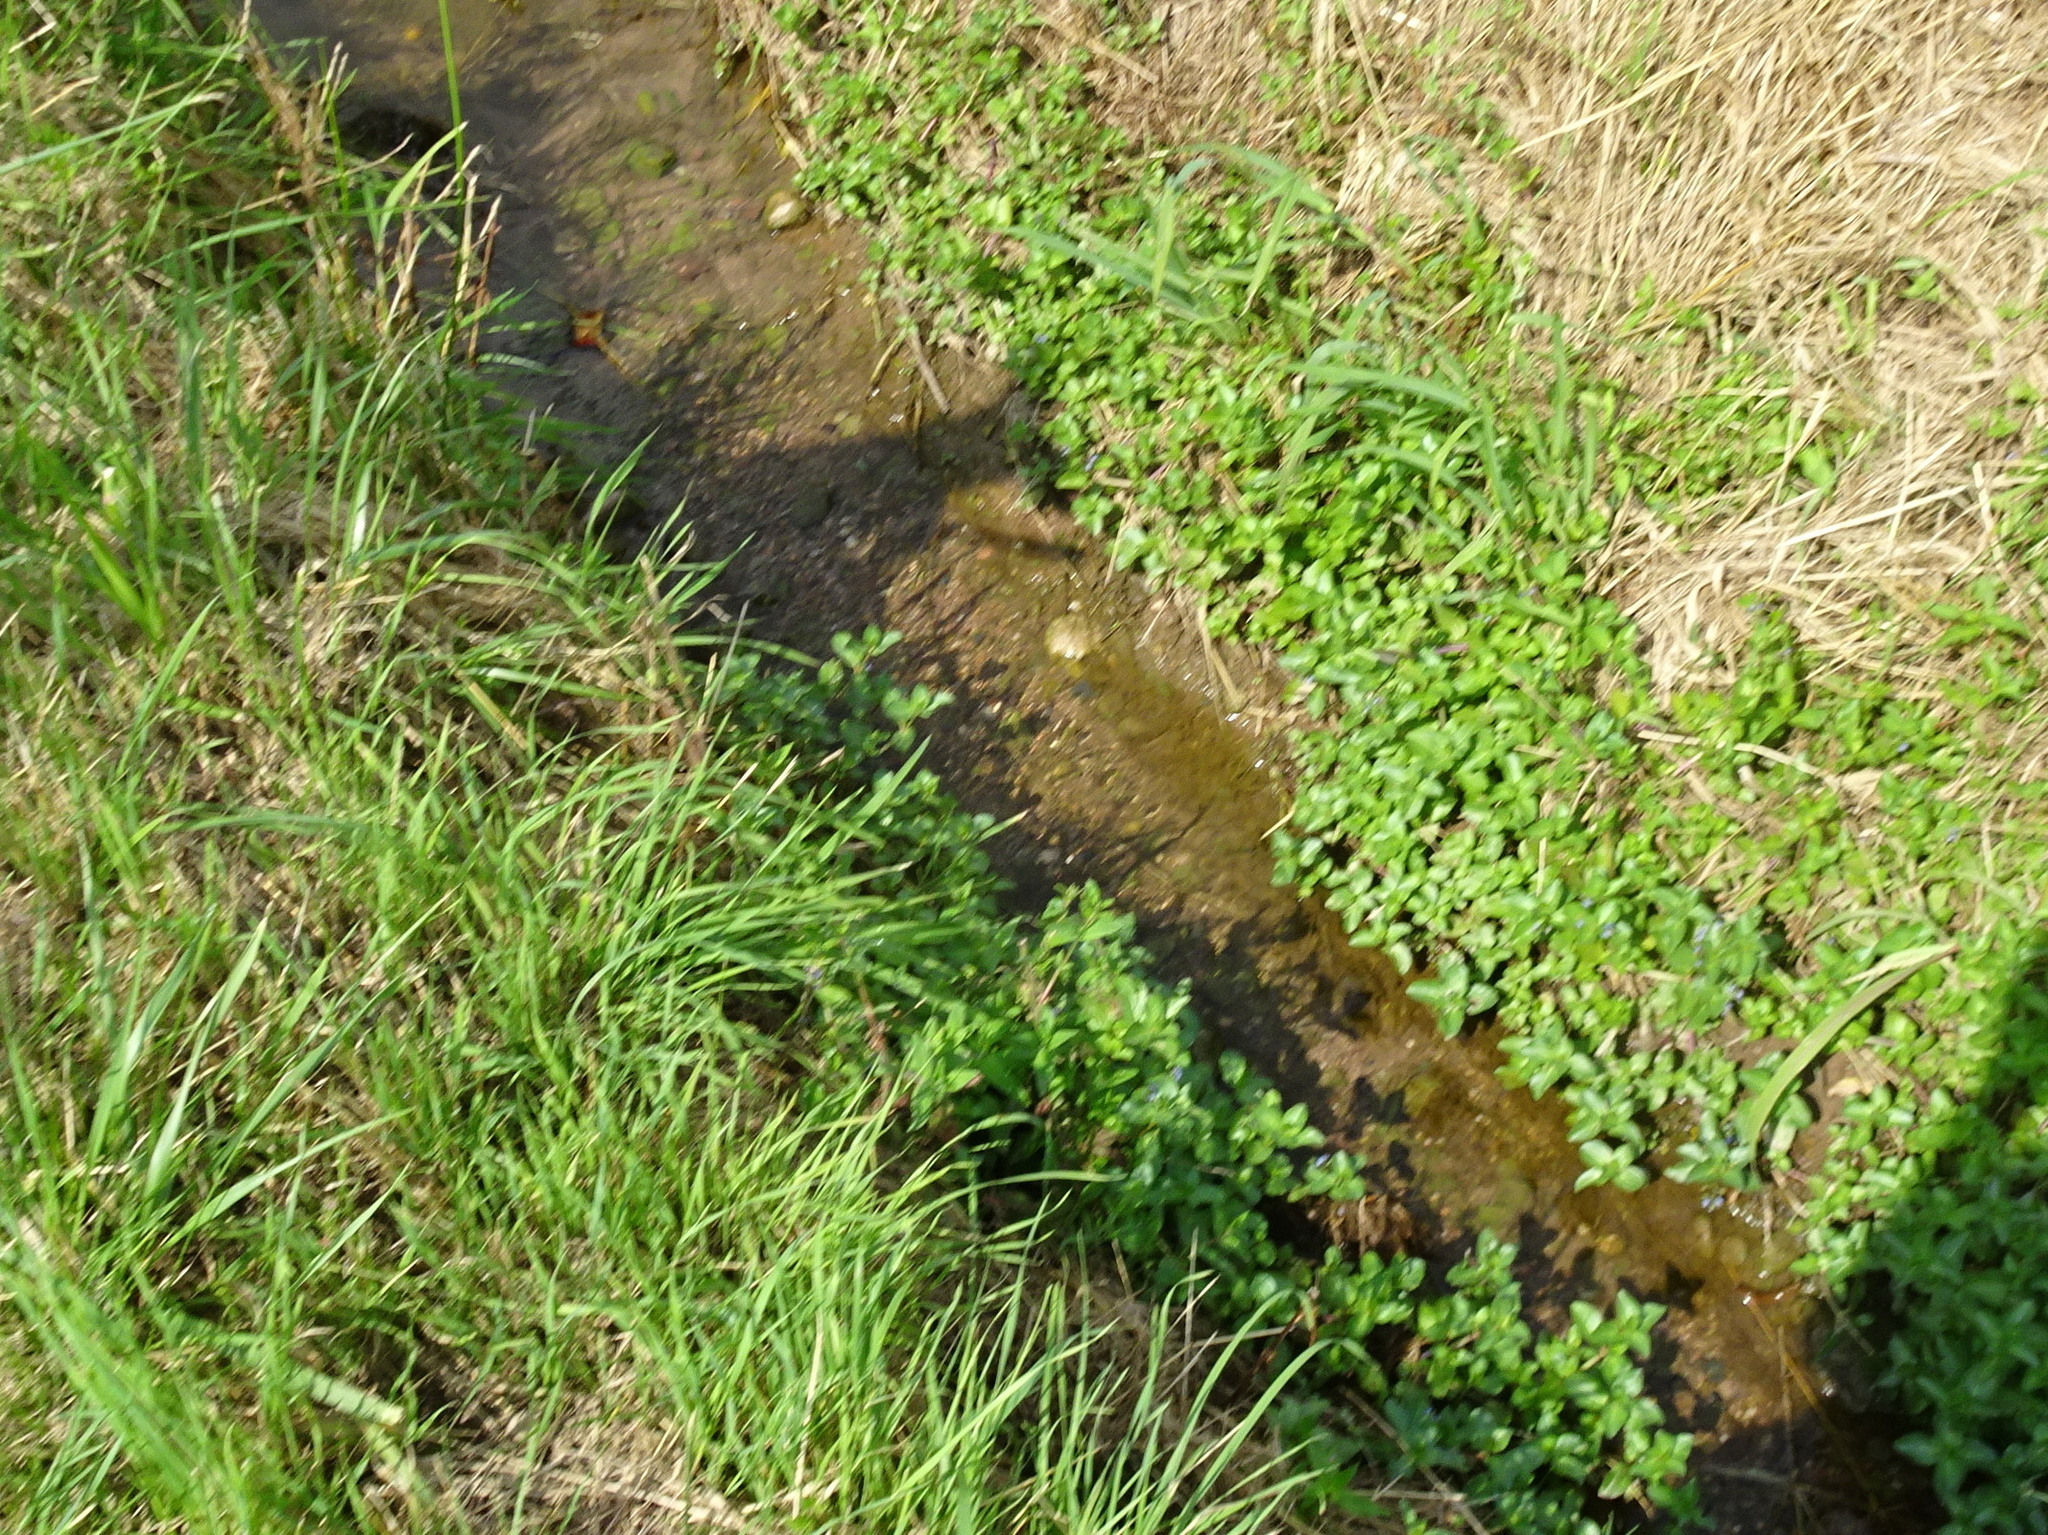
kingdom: Plantae
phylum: Tracheophyta
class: Magnoliopsida
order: Lamiales
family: Plantaginaceae
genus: Veronica
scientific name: Veronica beccabunga
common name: Brooklime
